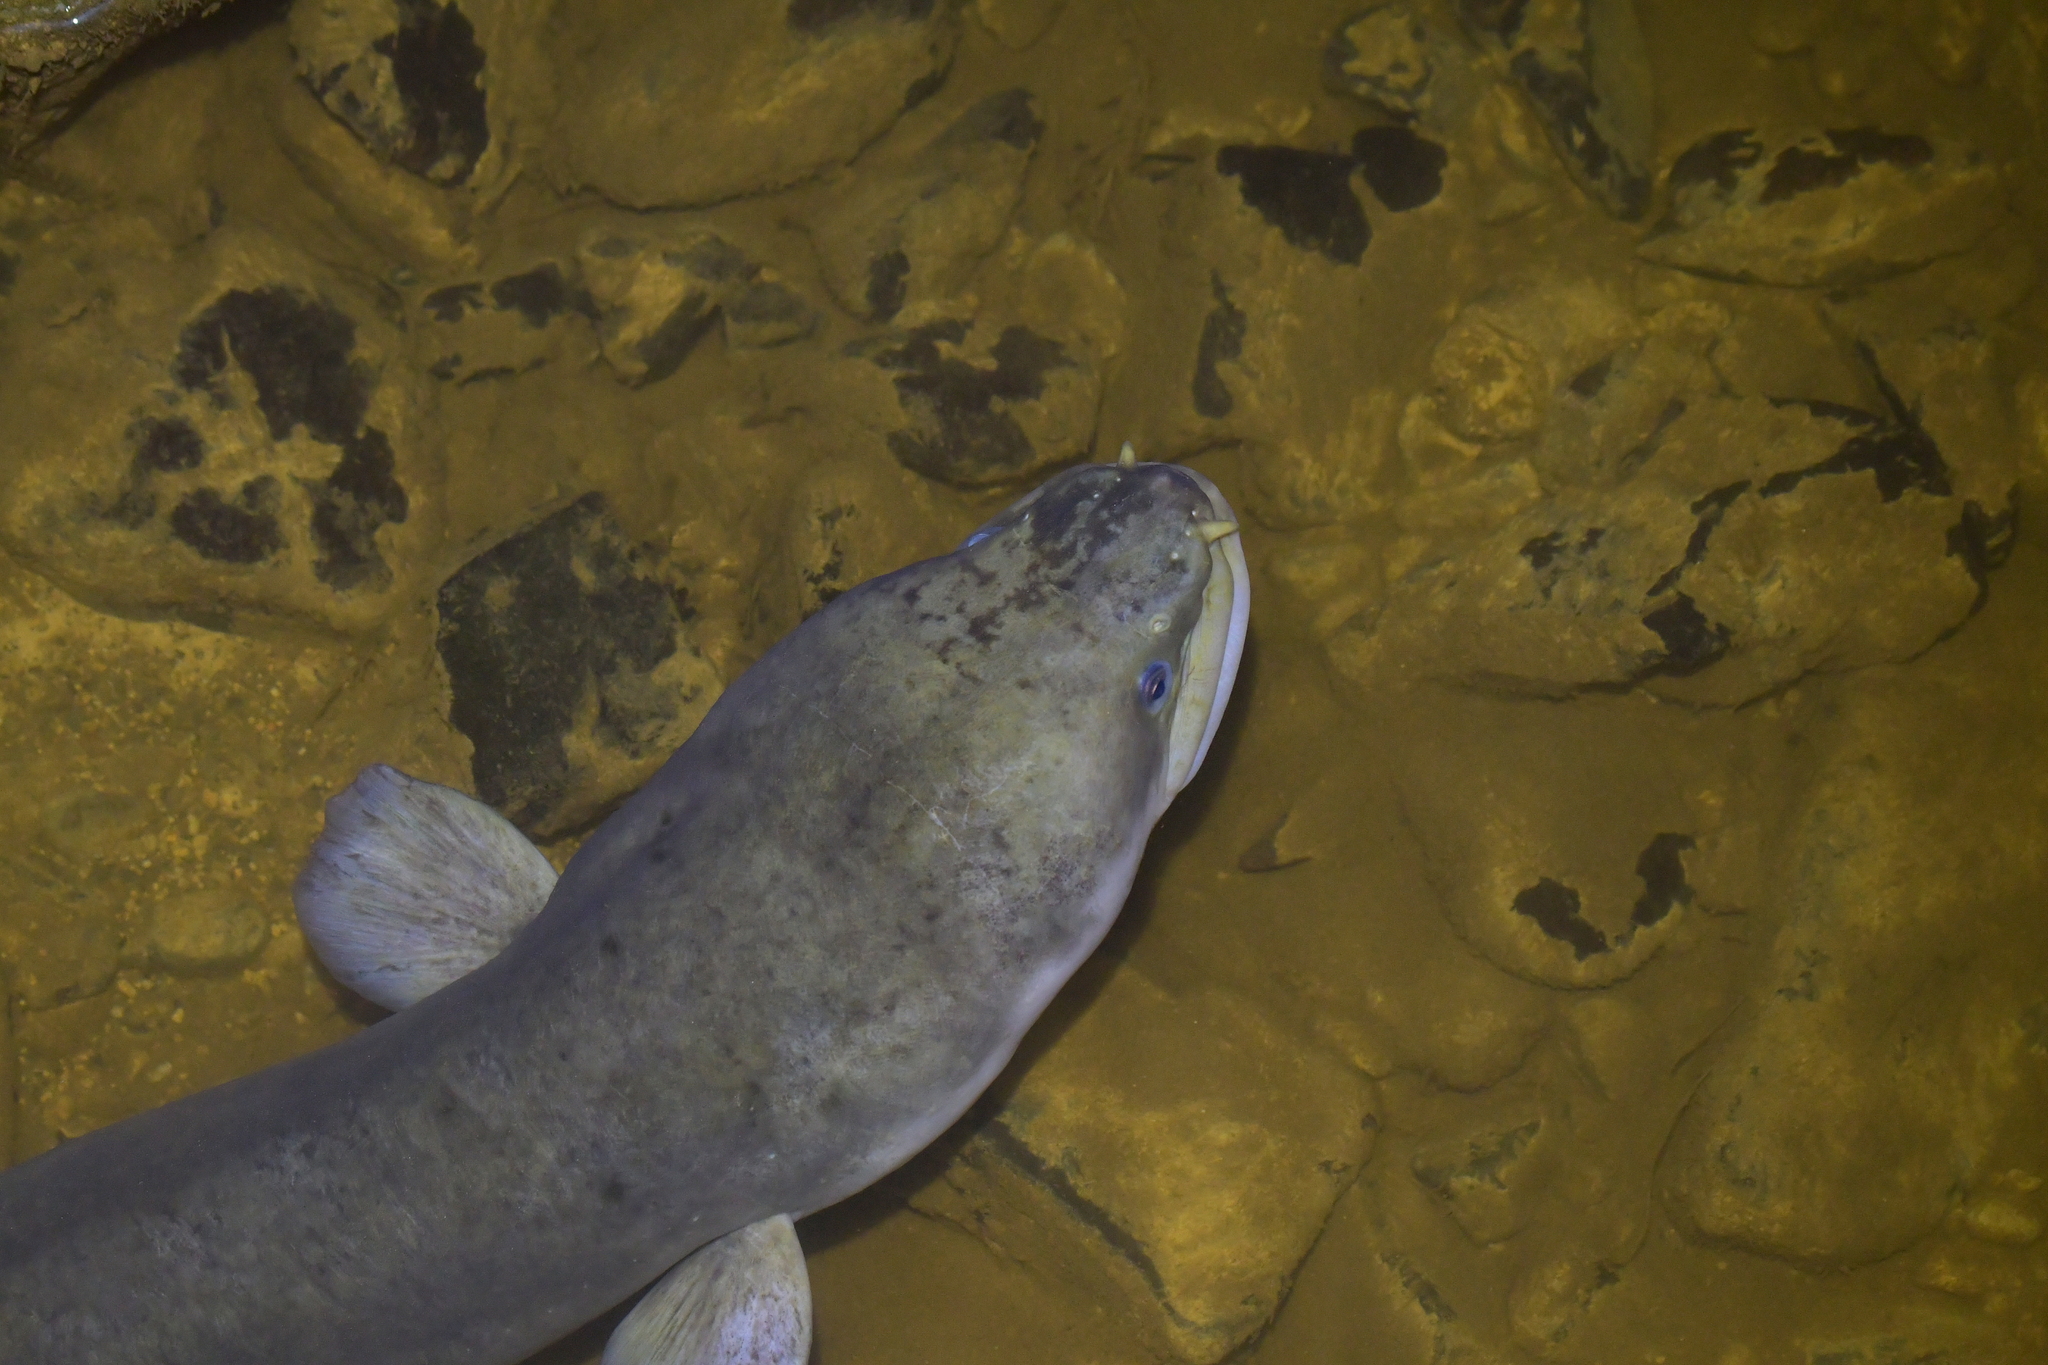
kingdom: Animalia
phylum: Chordata
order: Anguilliformes
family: Anguillidae
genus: Anguilla
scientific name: Anguilla dieffenbachii
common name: New zealand longfin eel
